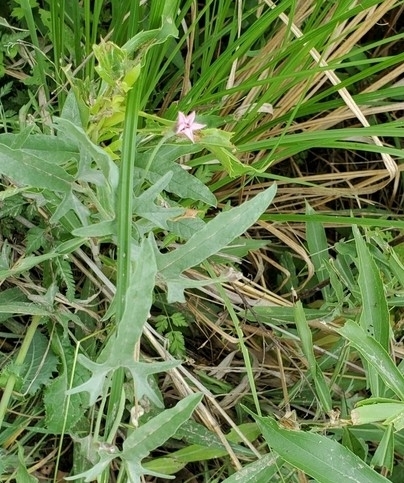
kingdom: Plantae
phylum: Tracheophyta
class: Magnoliopsida
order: Solanales
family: Convolvulaceae
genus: Convolvulus
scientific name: Convolvulus equitans
